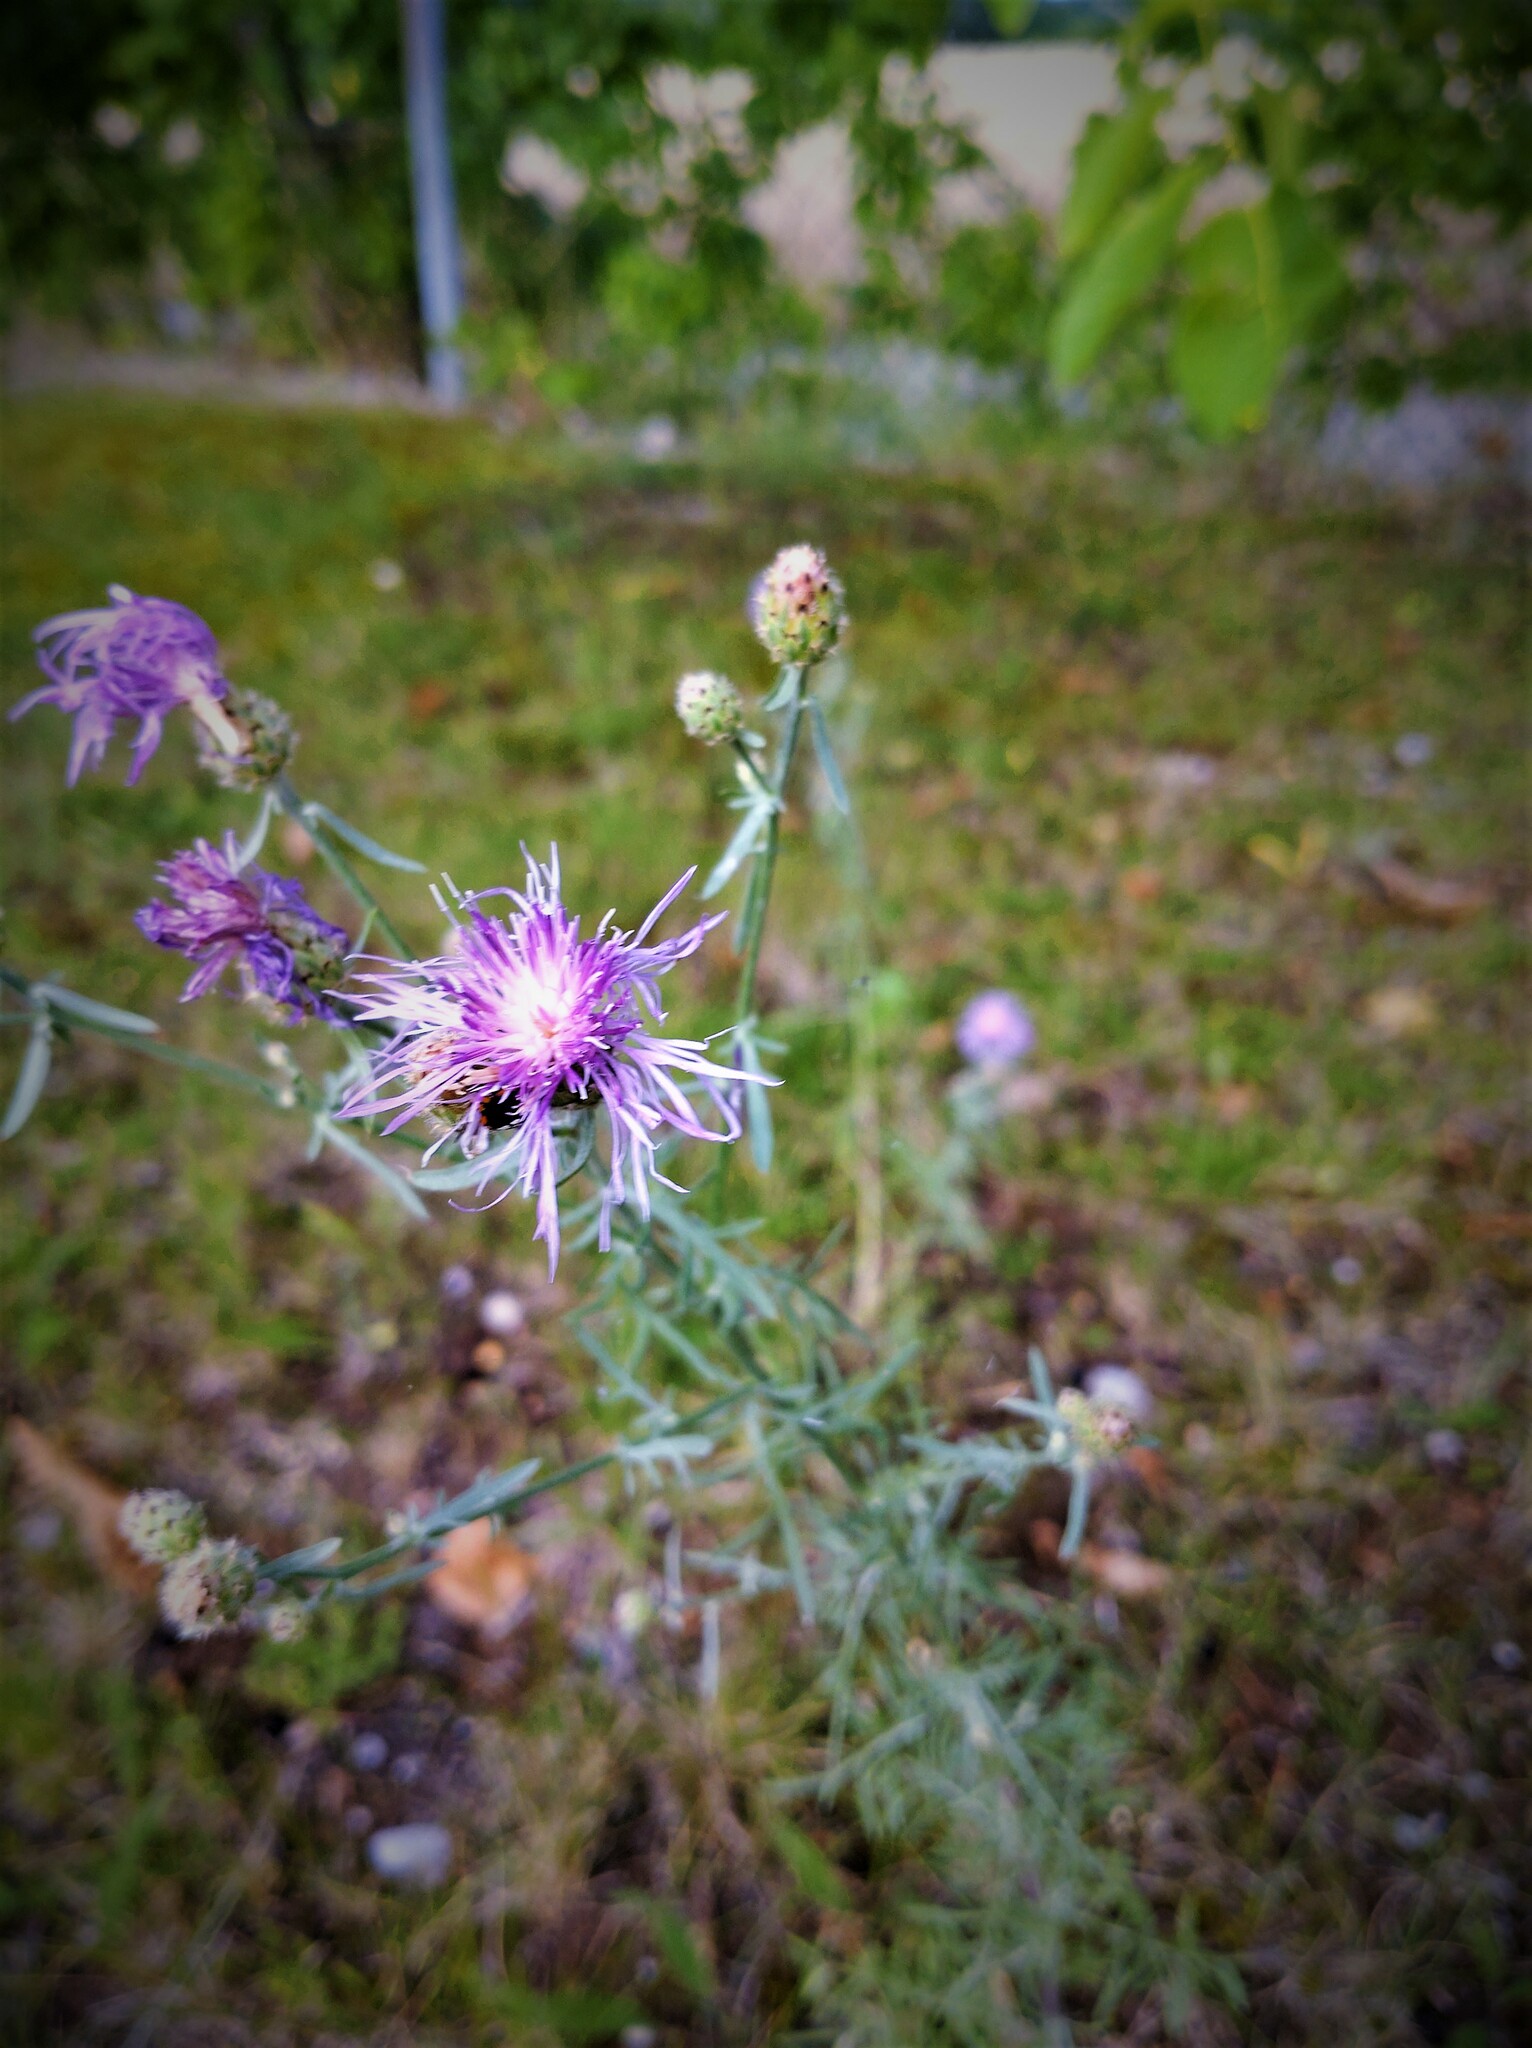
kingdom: Plantae
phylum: Tracheophyta
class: Magnoliopsida
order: Asterales
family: Asteraceae
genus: Centaurea
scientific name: Centaurea stoebe
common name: Spotted knapweed
